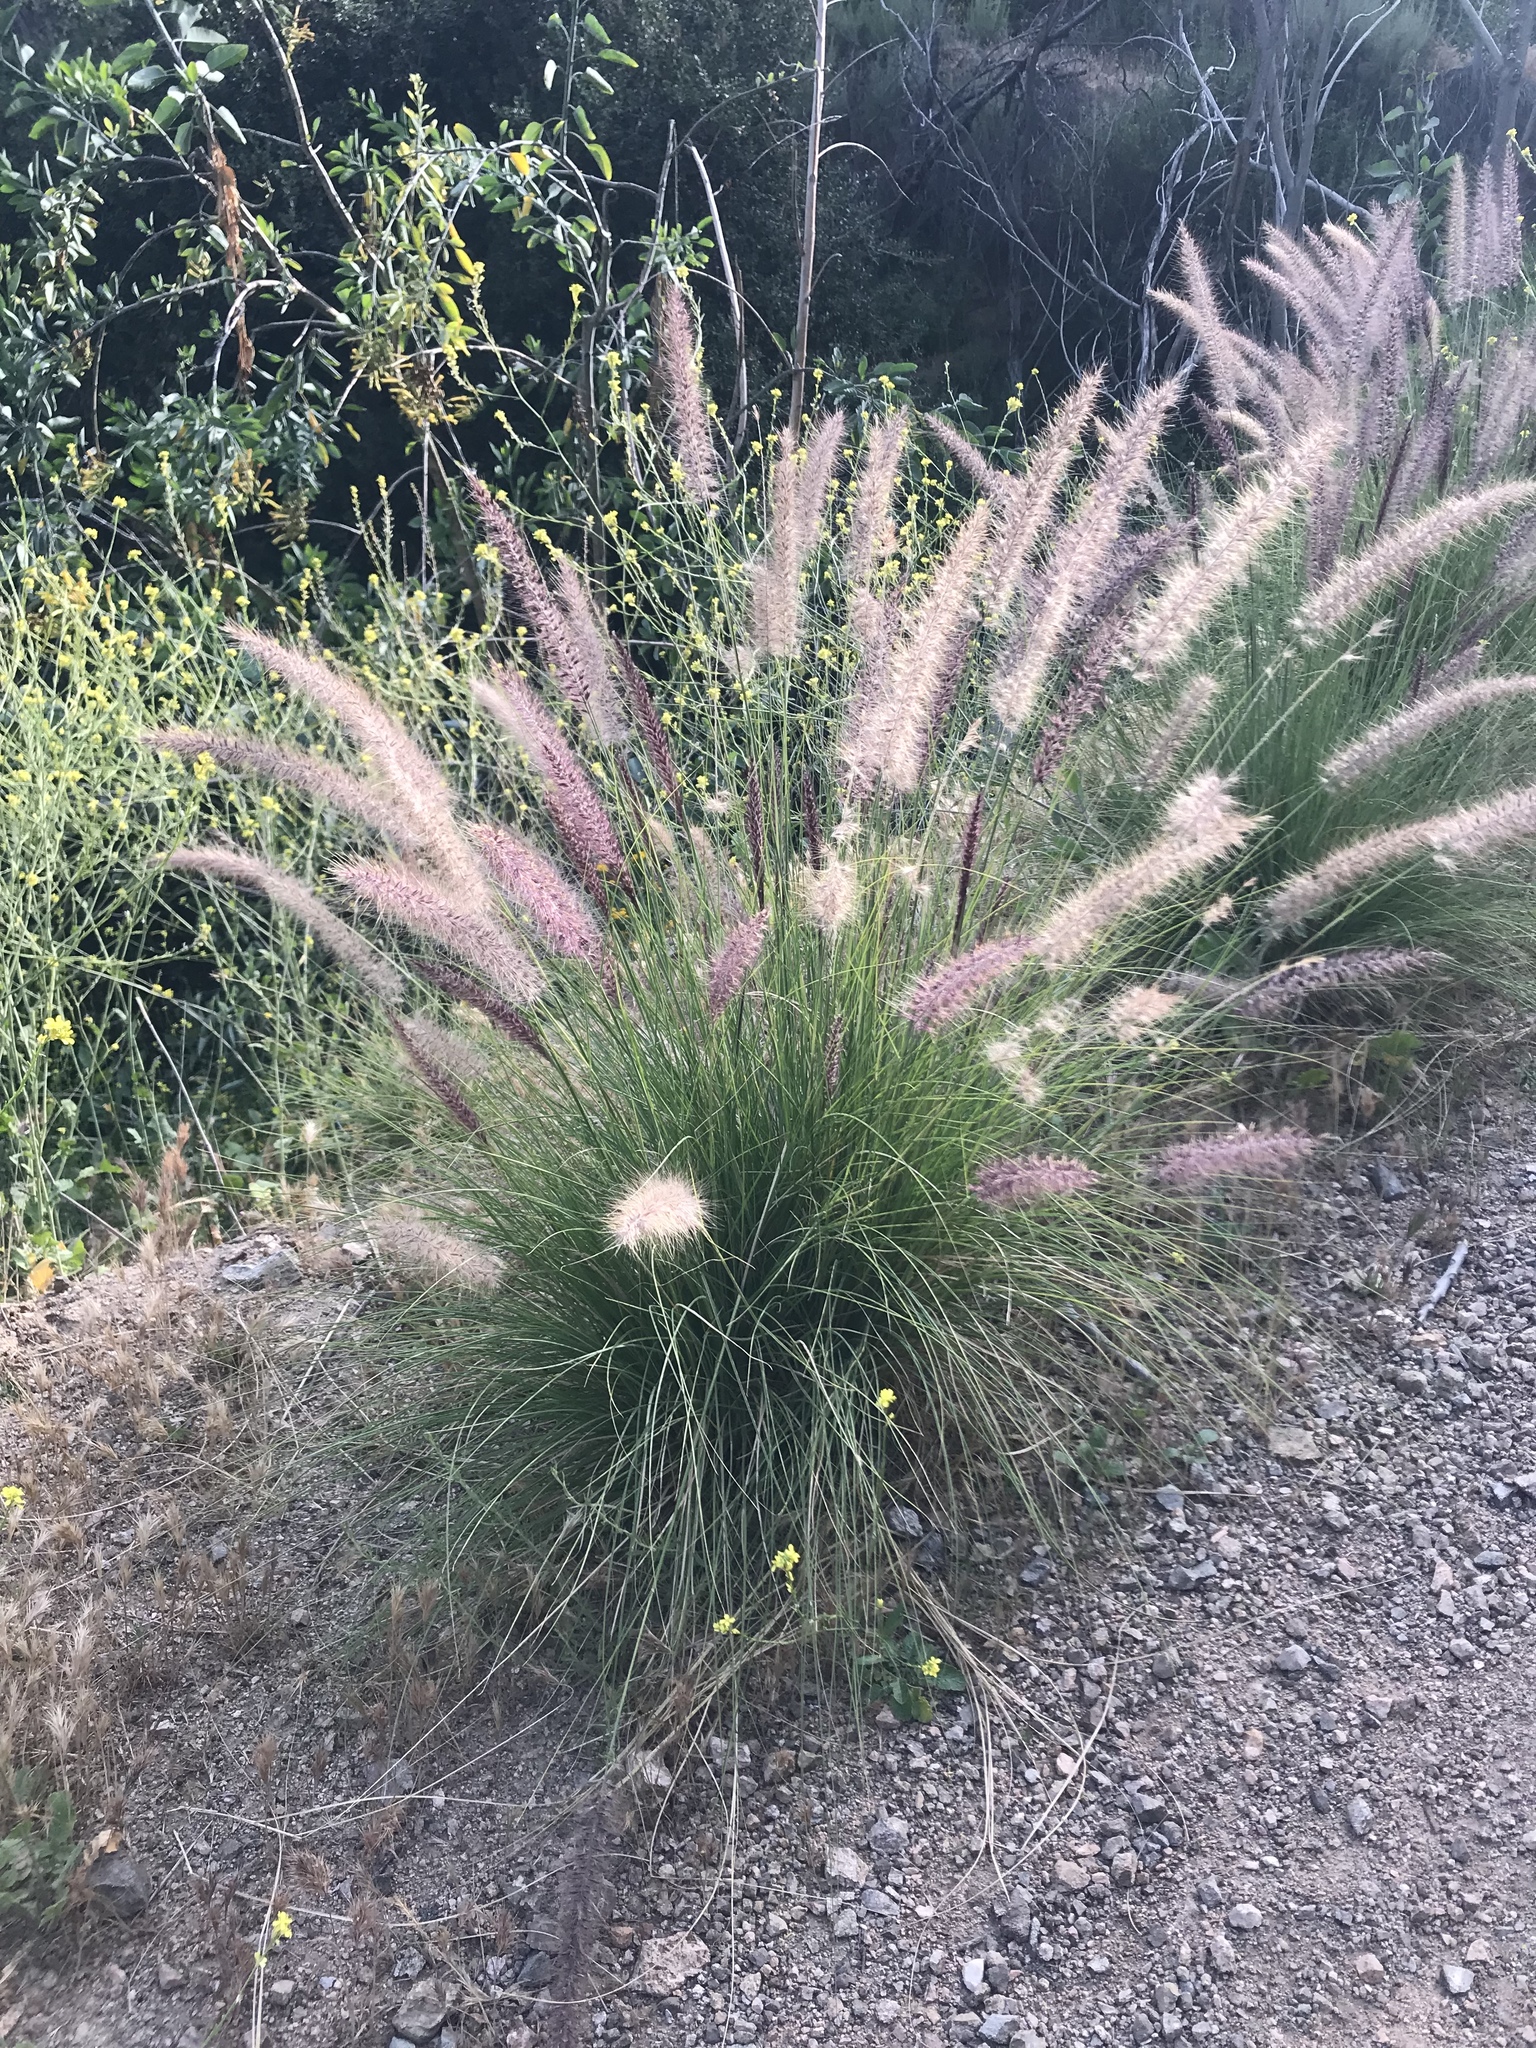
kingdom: Plantae
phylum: Tracheophyta
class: Liliopsida
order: Poales
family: Poaceae
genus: Cenchrus
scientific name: Cenchrus setaceus
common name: Crimson fountaingrass
